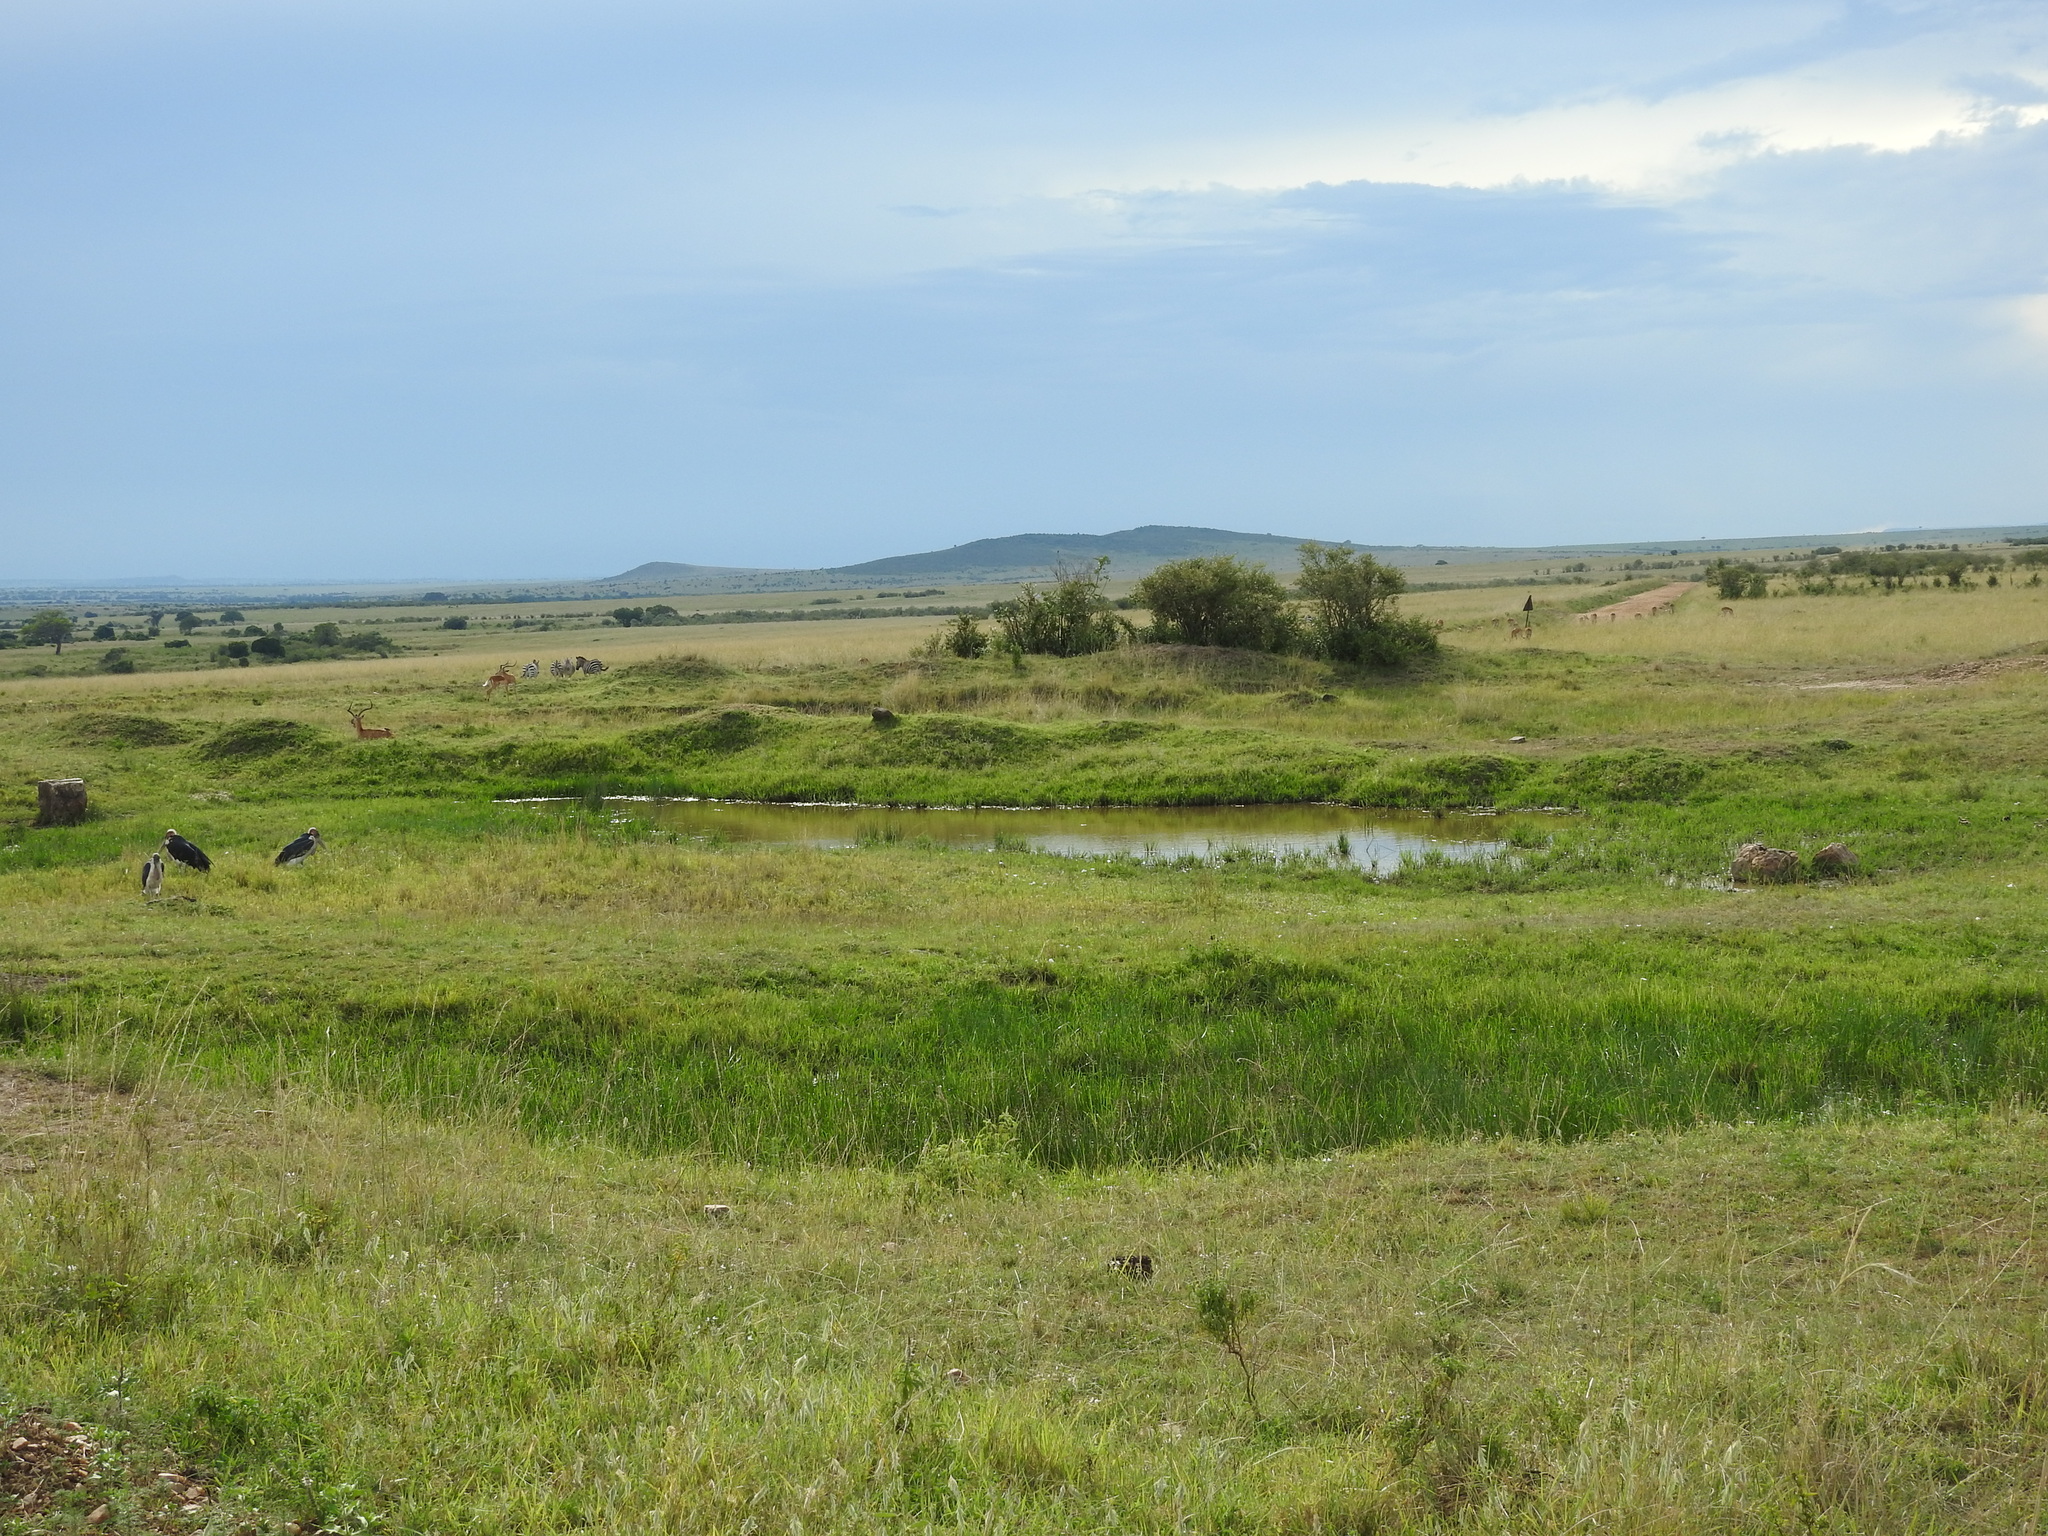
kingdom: Animalia
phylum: Chordata
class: Mammalia
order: Perissodactyla
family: Equidae
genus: Equus
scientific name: Equus quagga
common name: Plains zebra
